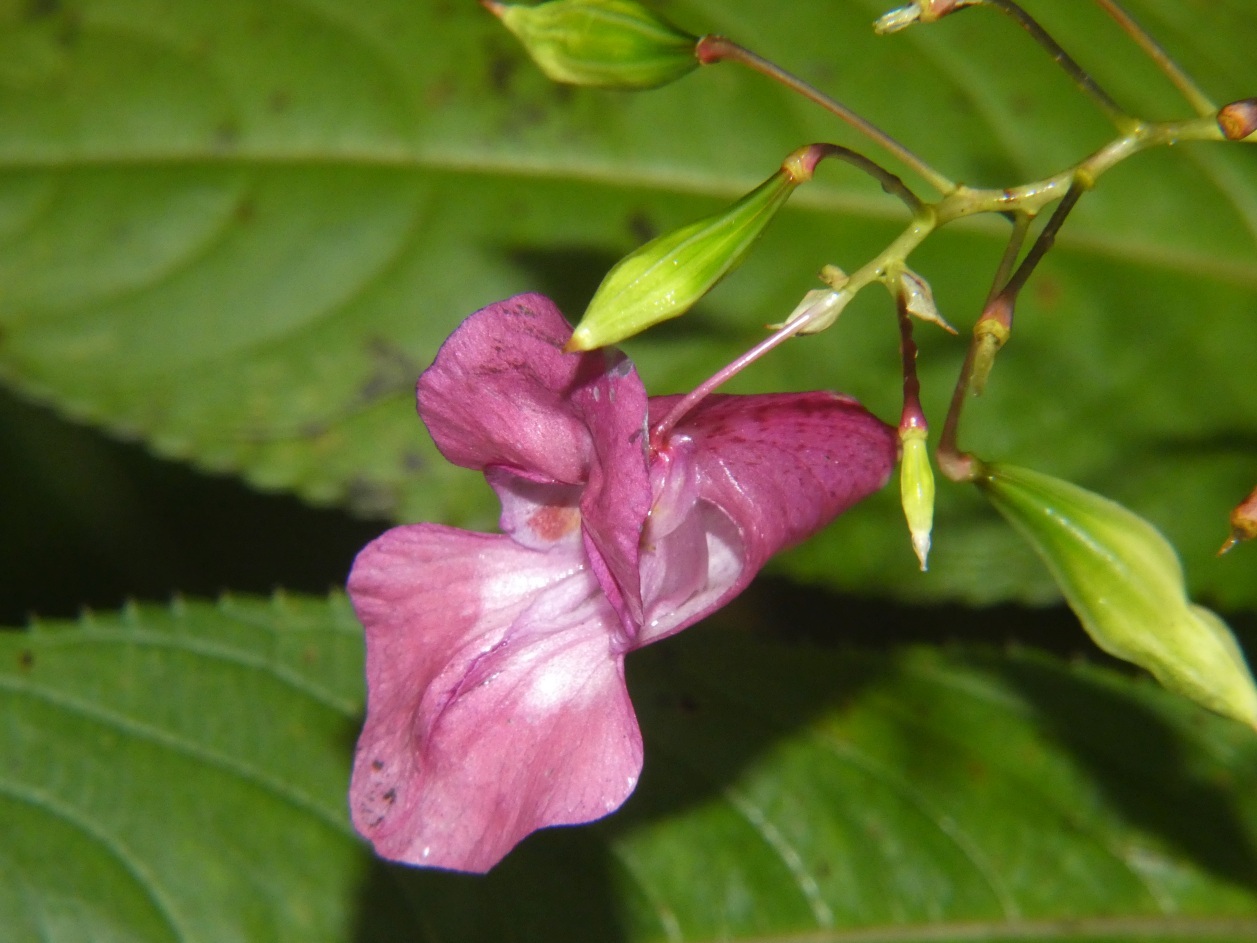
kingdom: Plantae
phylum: Tracheophyta
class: Magnoliopsida
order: Ericales
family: Balsaminaceae
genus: Impatiens
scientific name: Impatiens glandulifera
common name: Himalayan balsam
